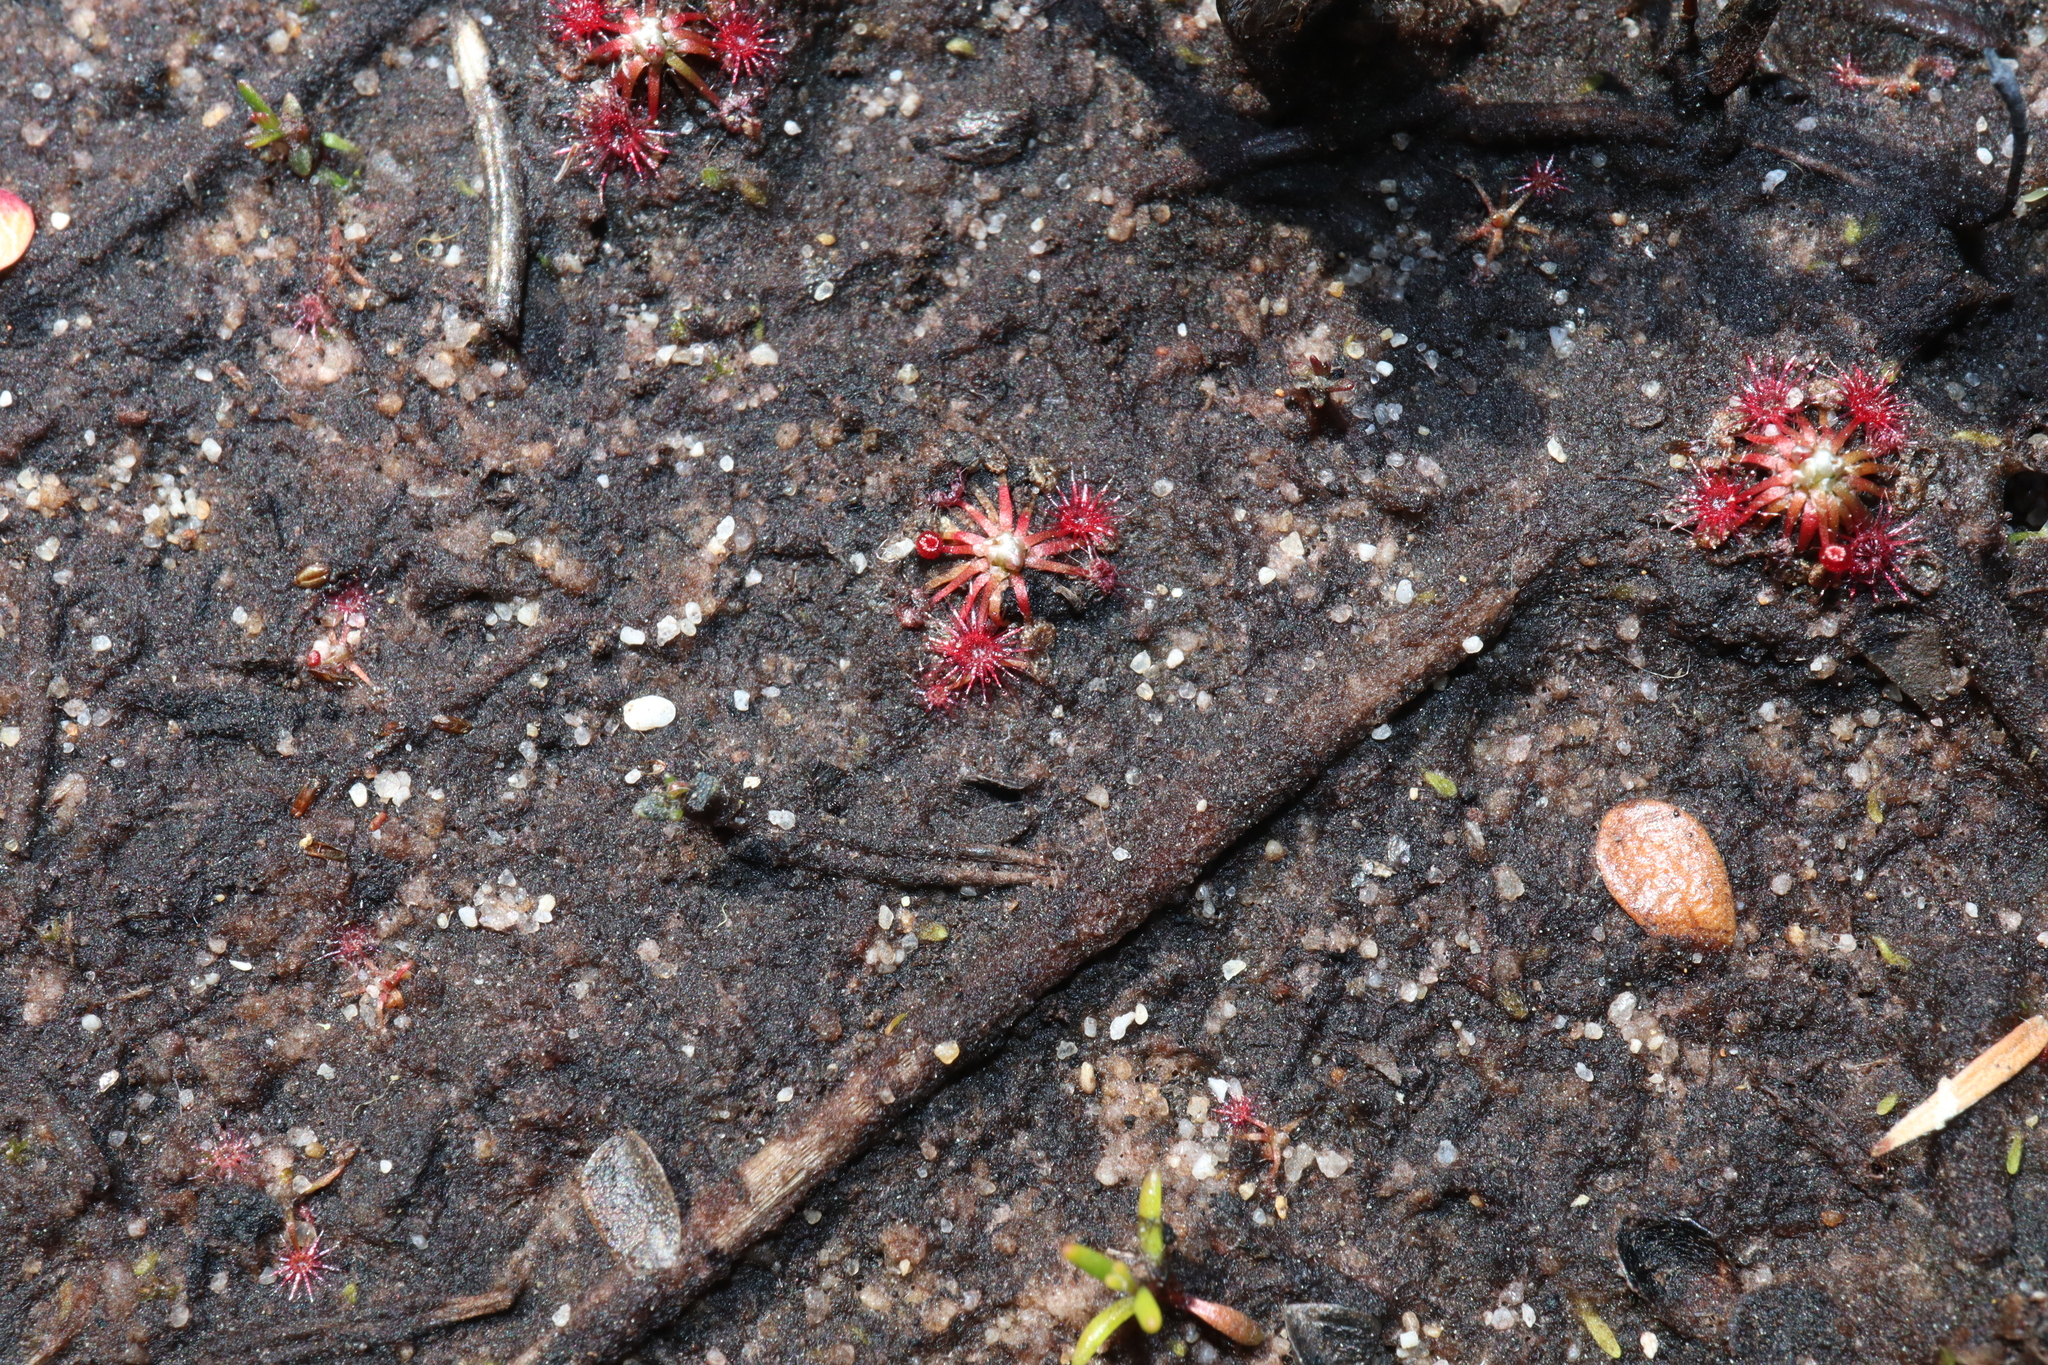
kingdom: Plantae
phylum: Tracheophyta
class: Magnoliopsida
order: Caryophyllales
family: Droseraceae
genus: Drosera
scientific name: Drosera pygmaea
